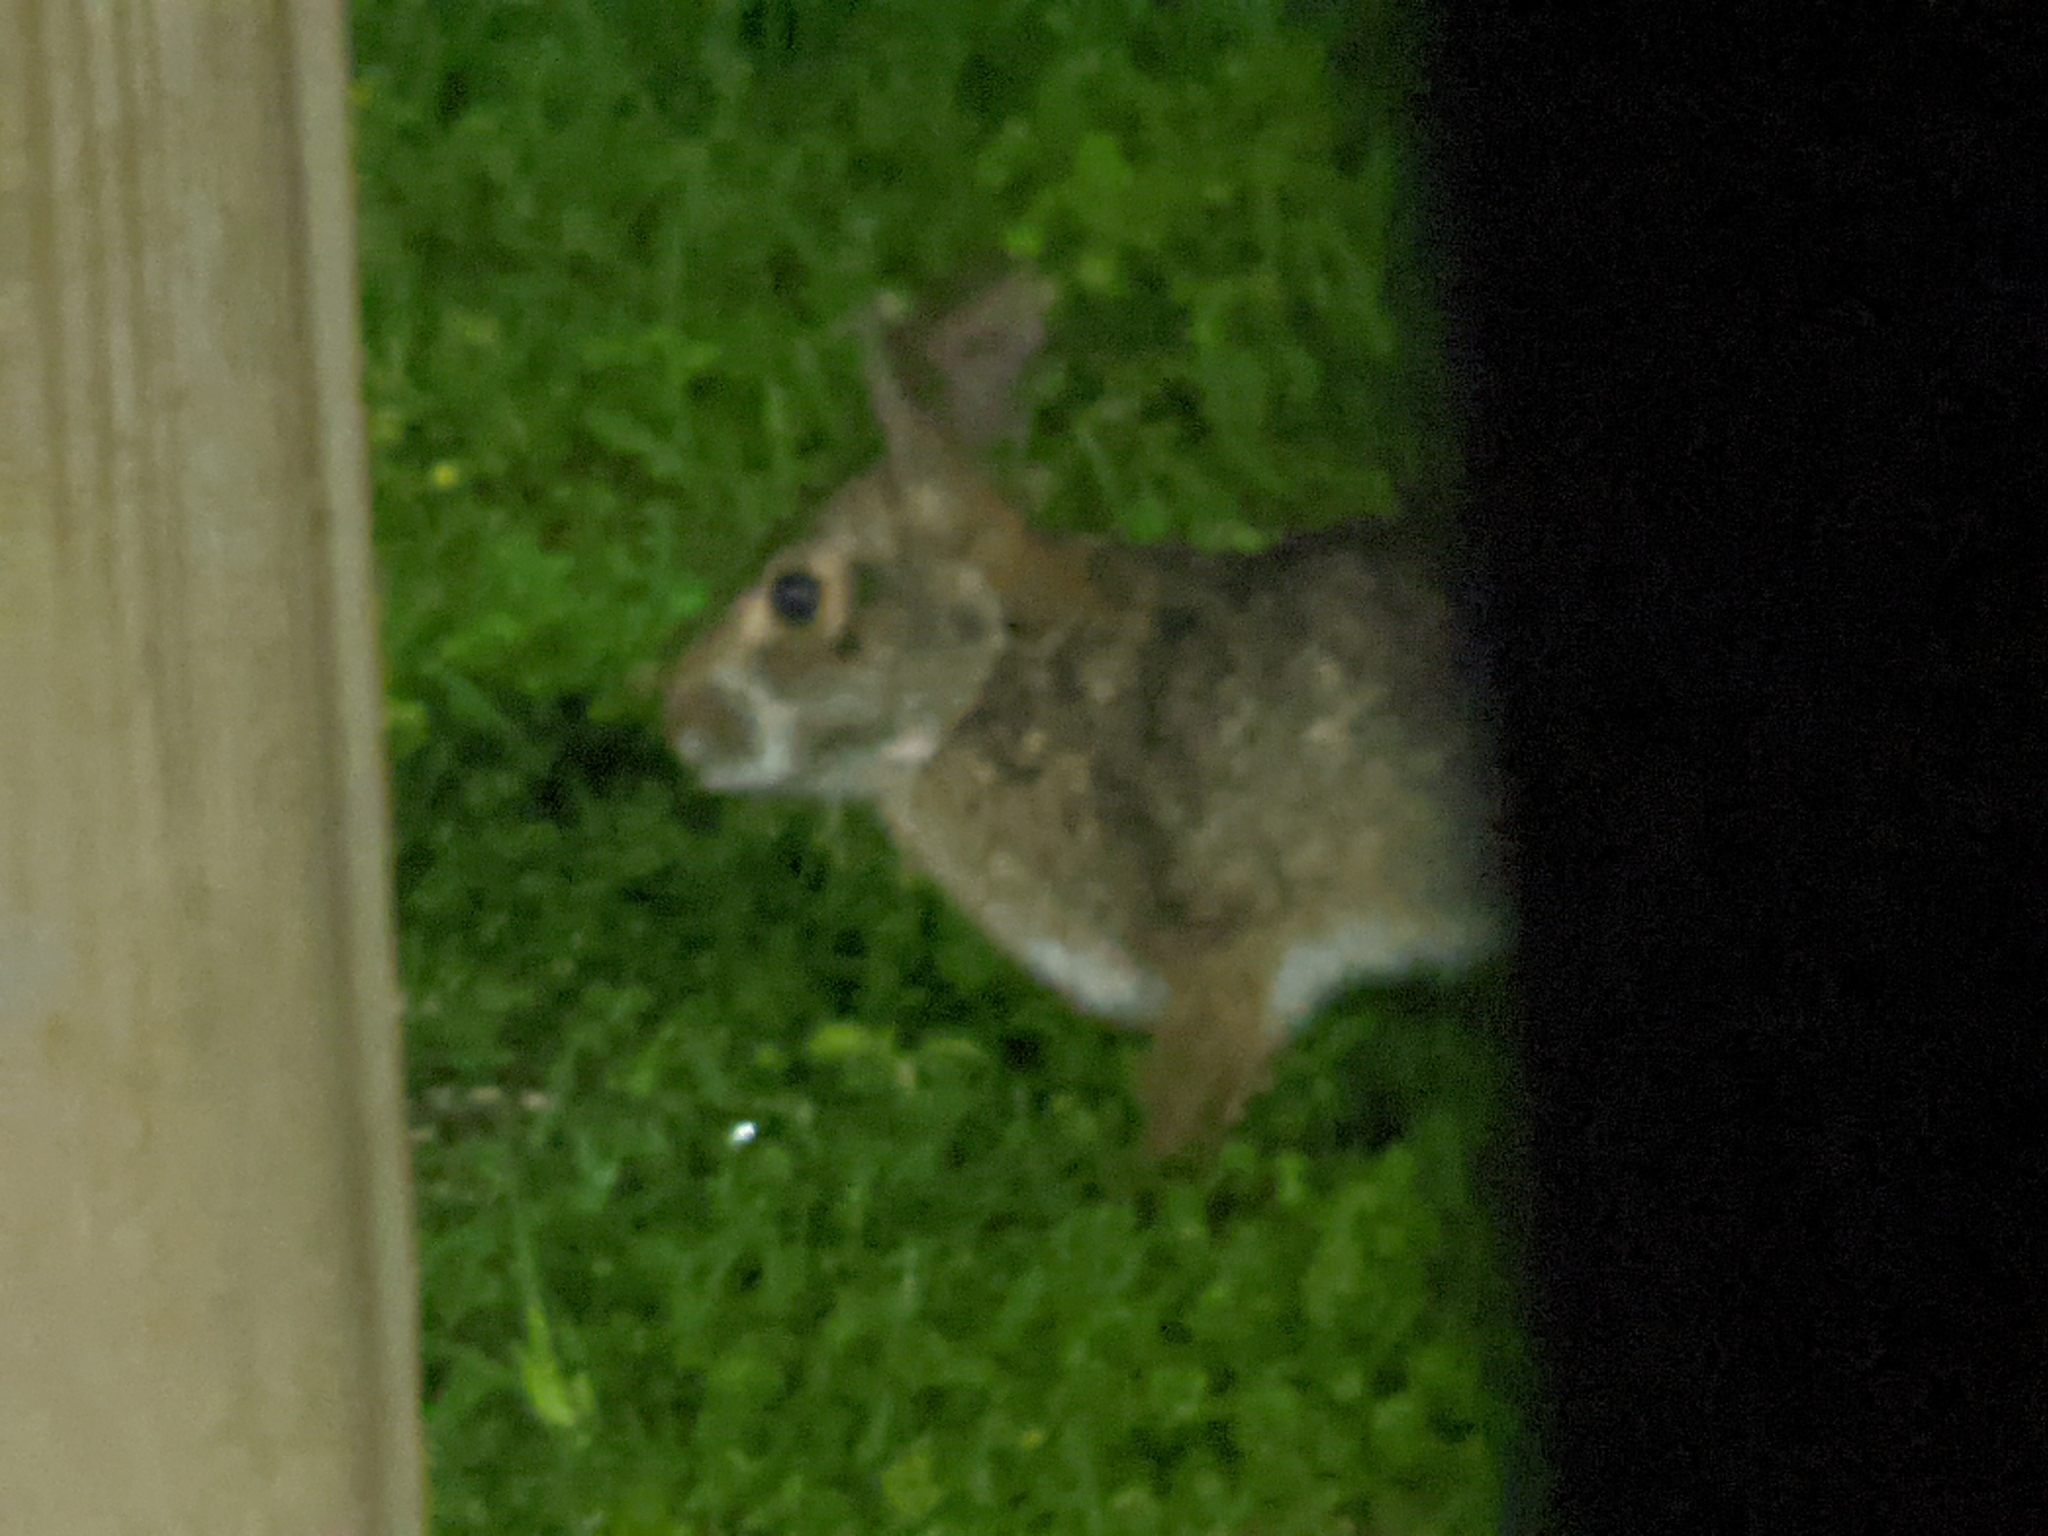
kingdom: Animalia
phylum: Chordata
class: Mammalia
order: Lagomorpha
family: Leporidae
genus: Sylvilagus
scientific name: Sylvilagus aquaticus
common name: Swamp rabbit
